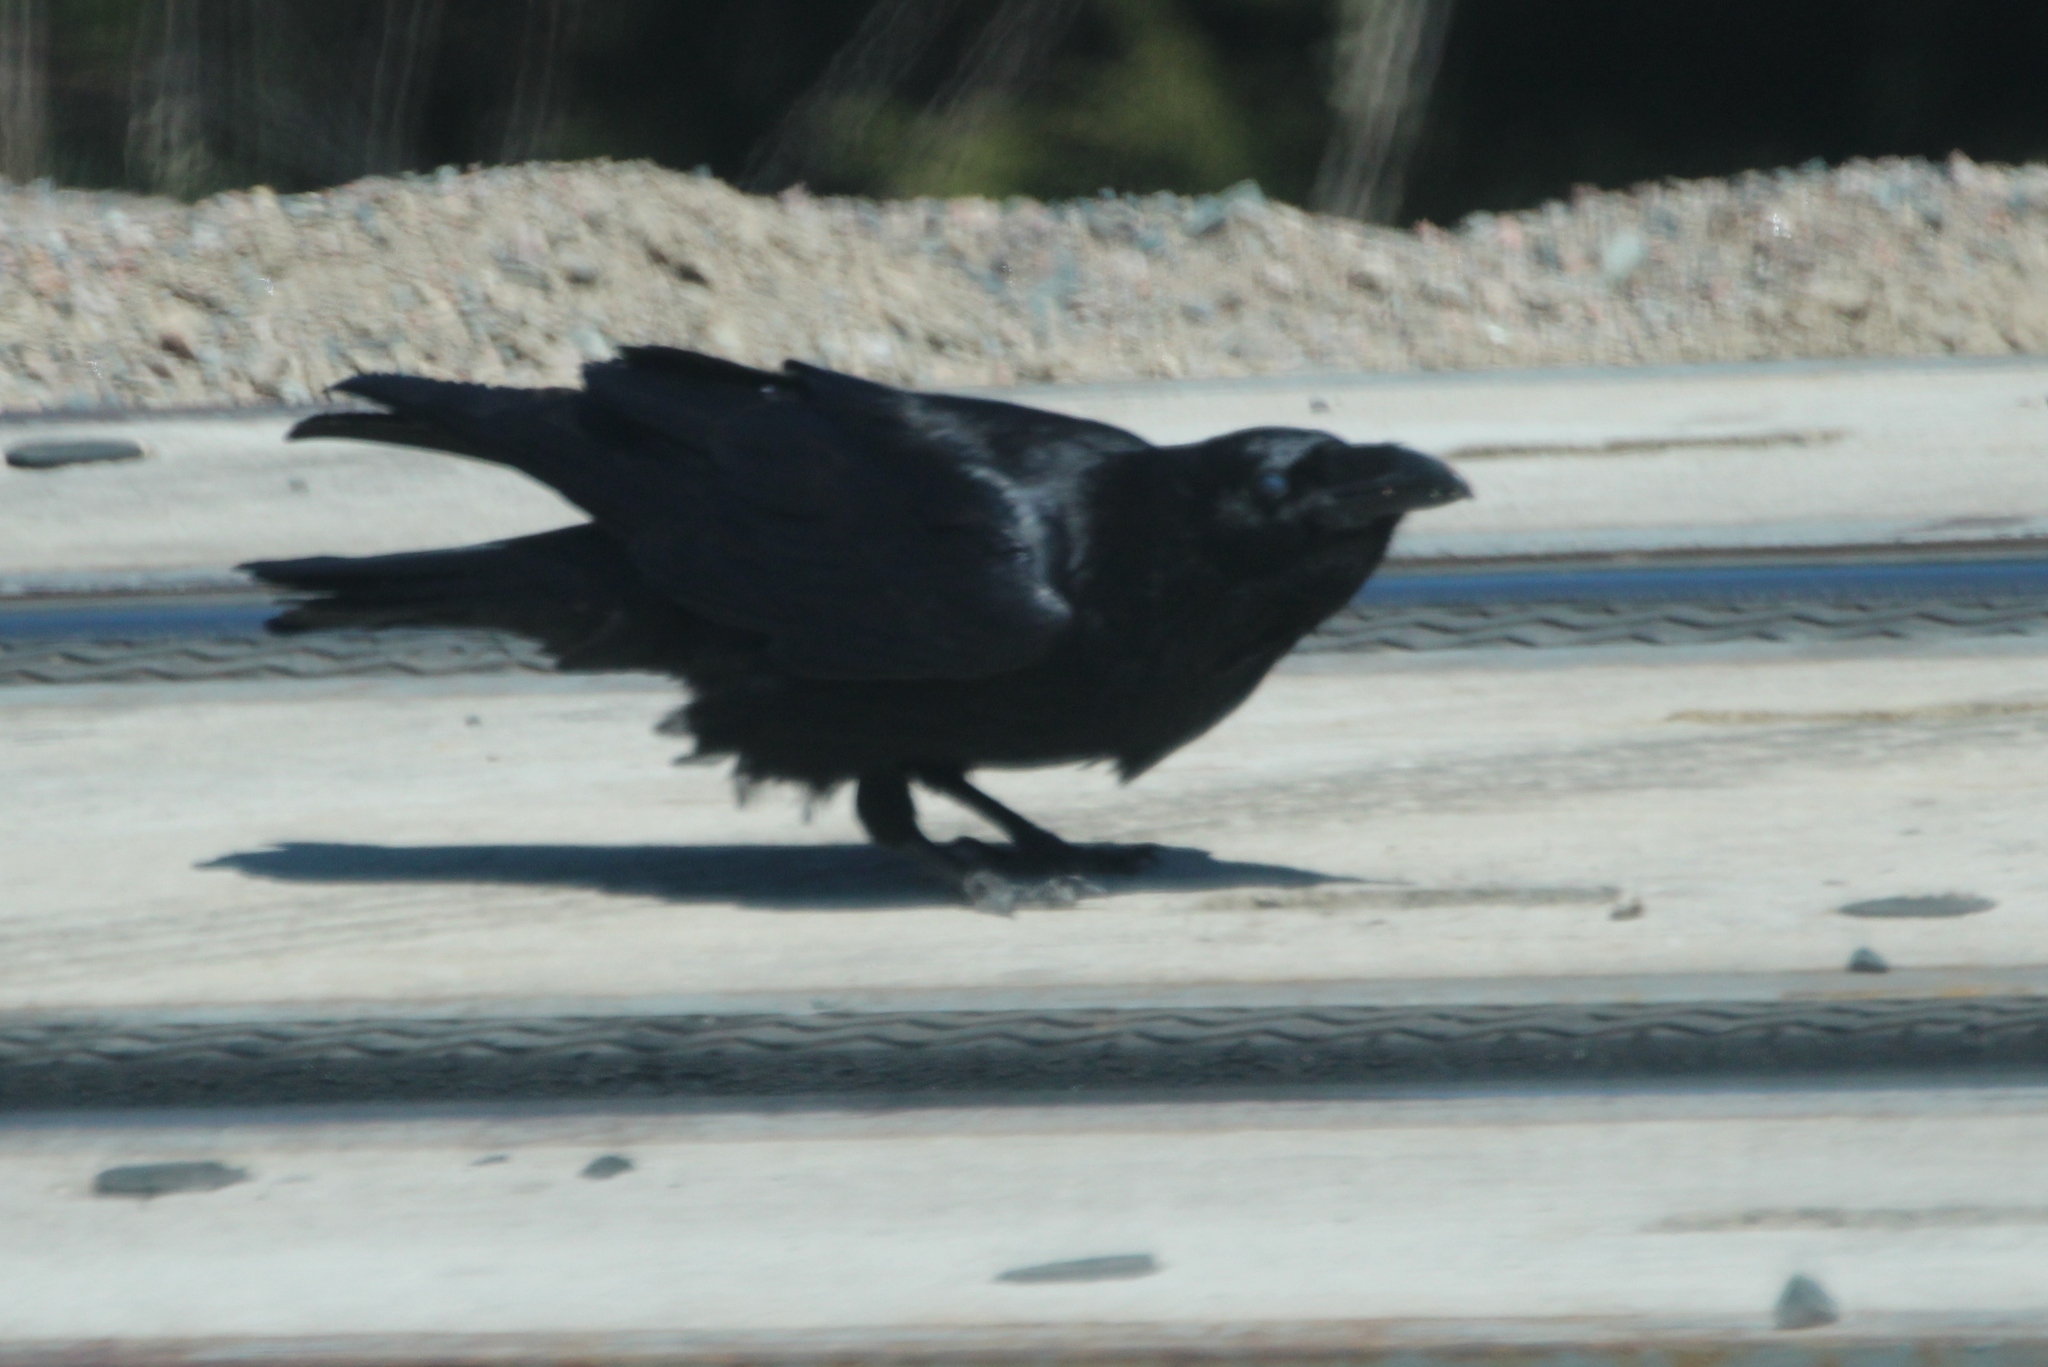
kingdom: Animalia
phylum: Chordata
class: Aves
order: Passeriformes
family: Corvidae
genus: Corvus
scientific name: Corvus corax
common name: Common raven
